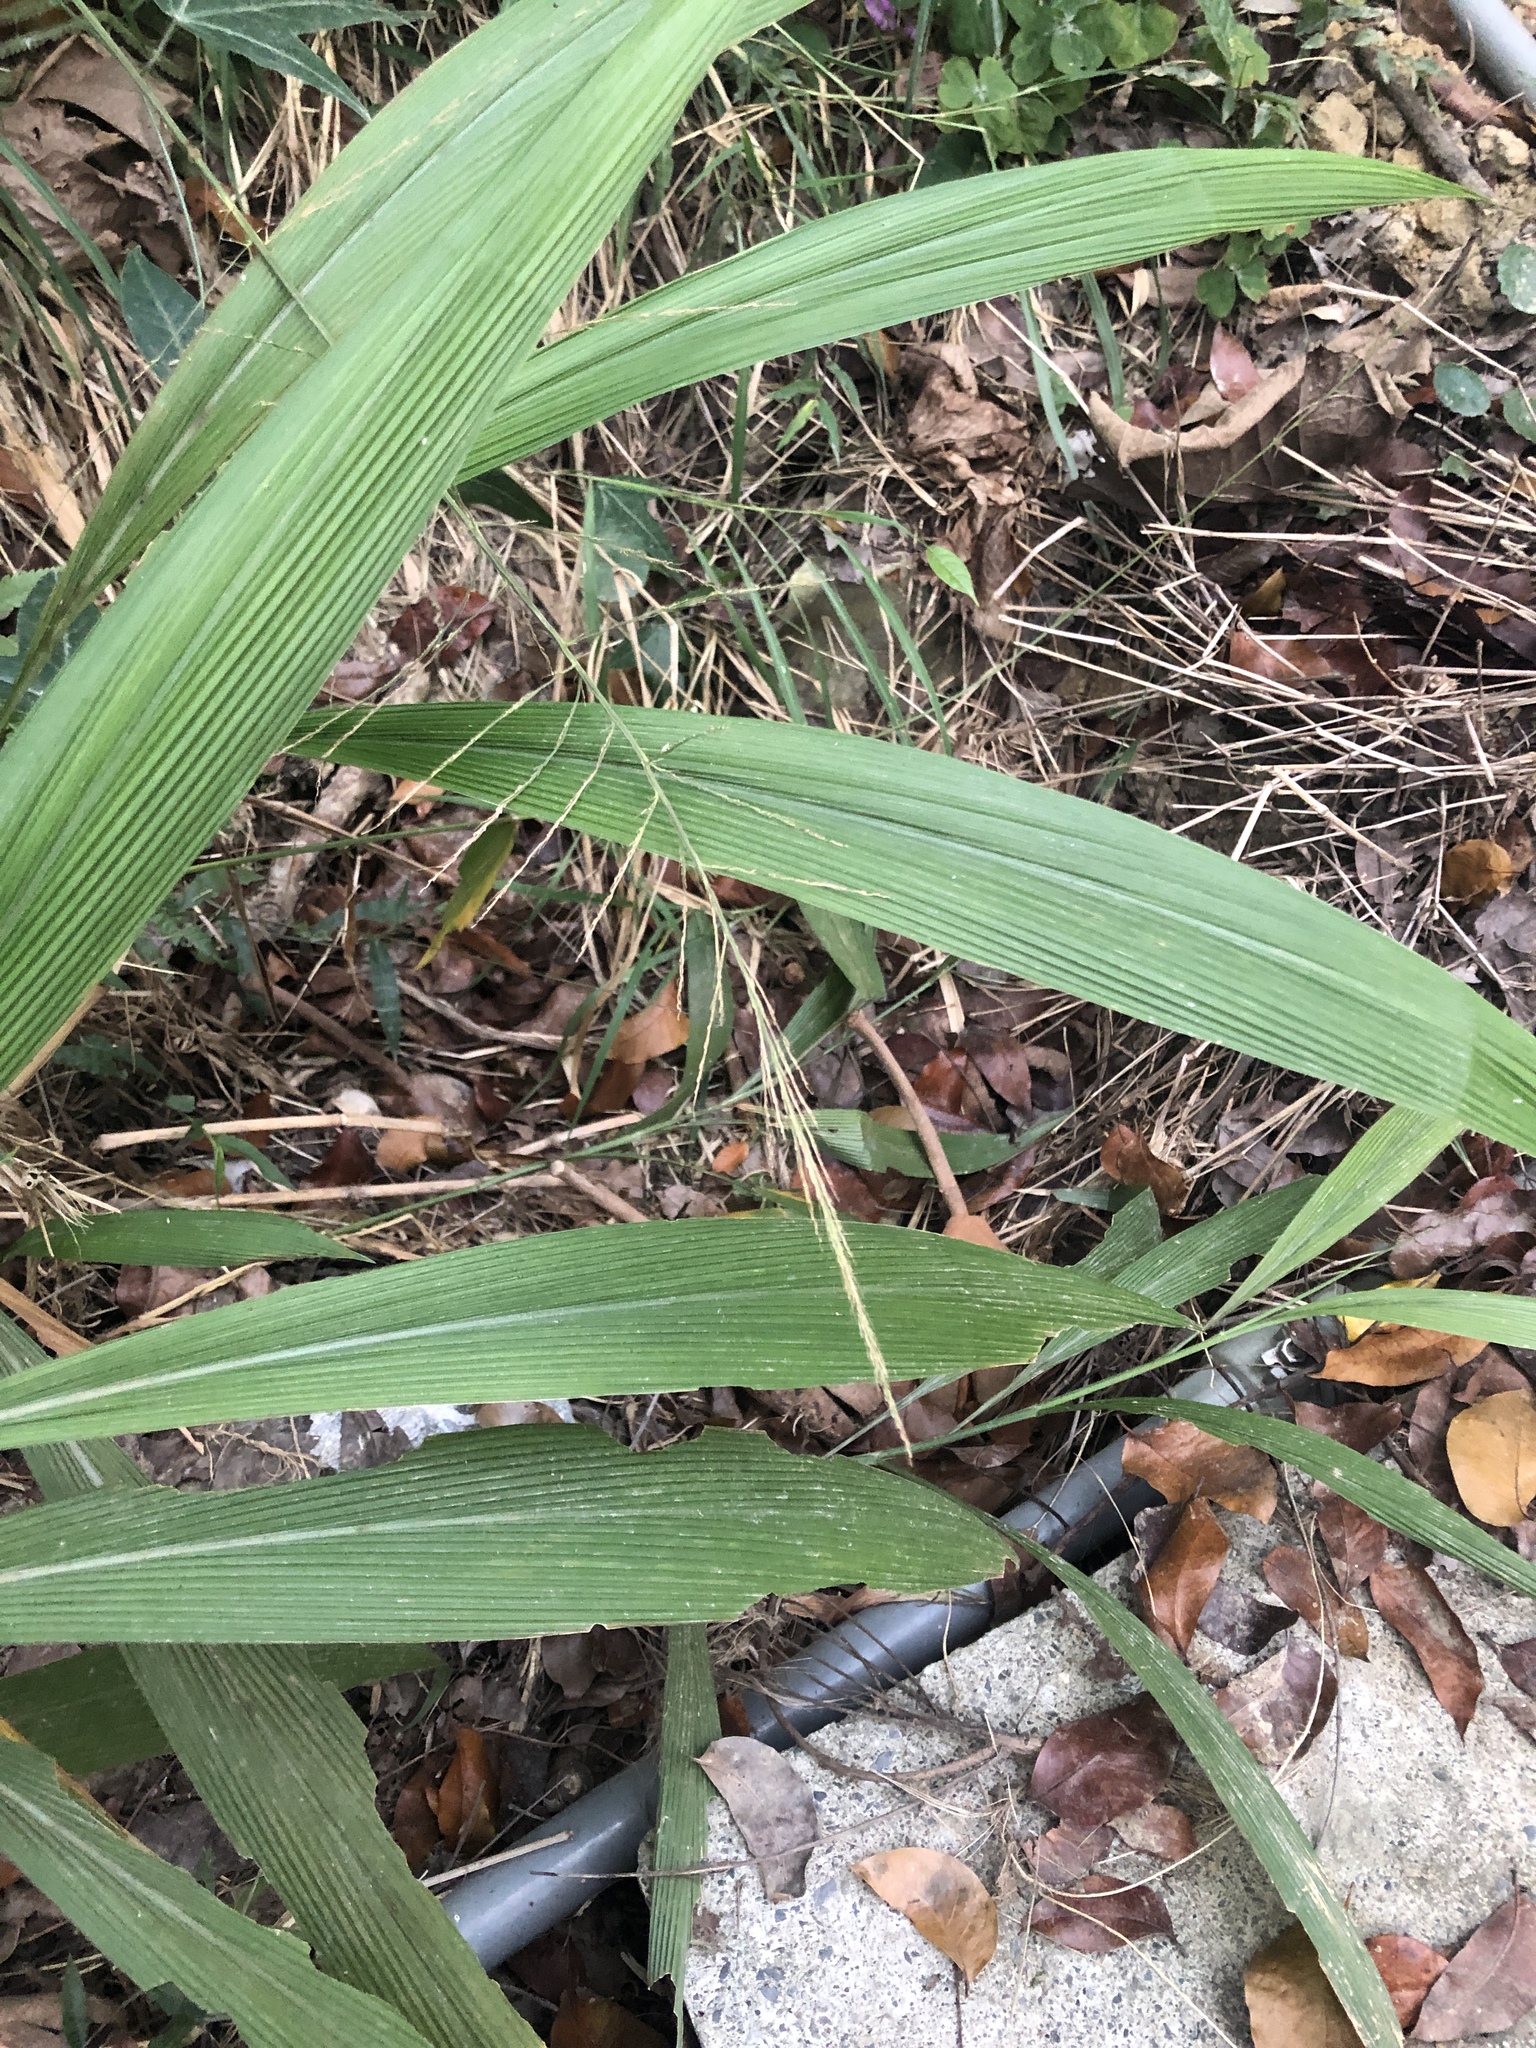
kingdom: Plantae
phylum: Tracheophyta
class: Liliopsida
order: Poales
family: Poaceae
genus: Setaria
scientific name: Setaria palmifolia
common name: Broadleaved bristlegrass
